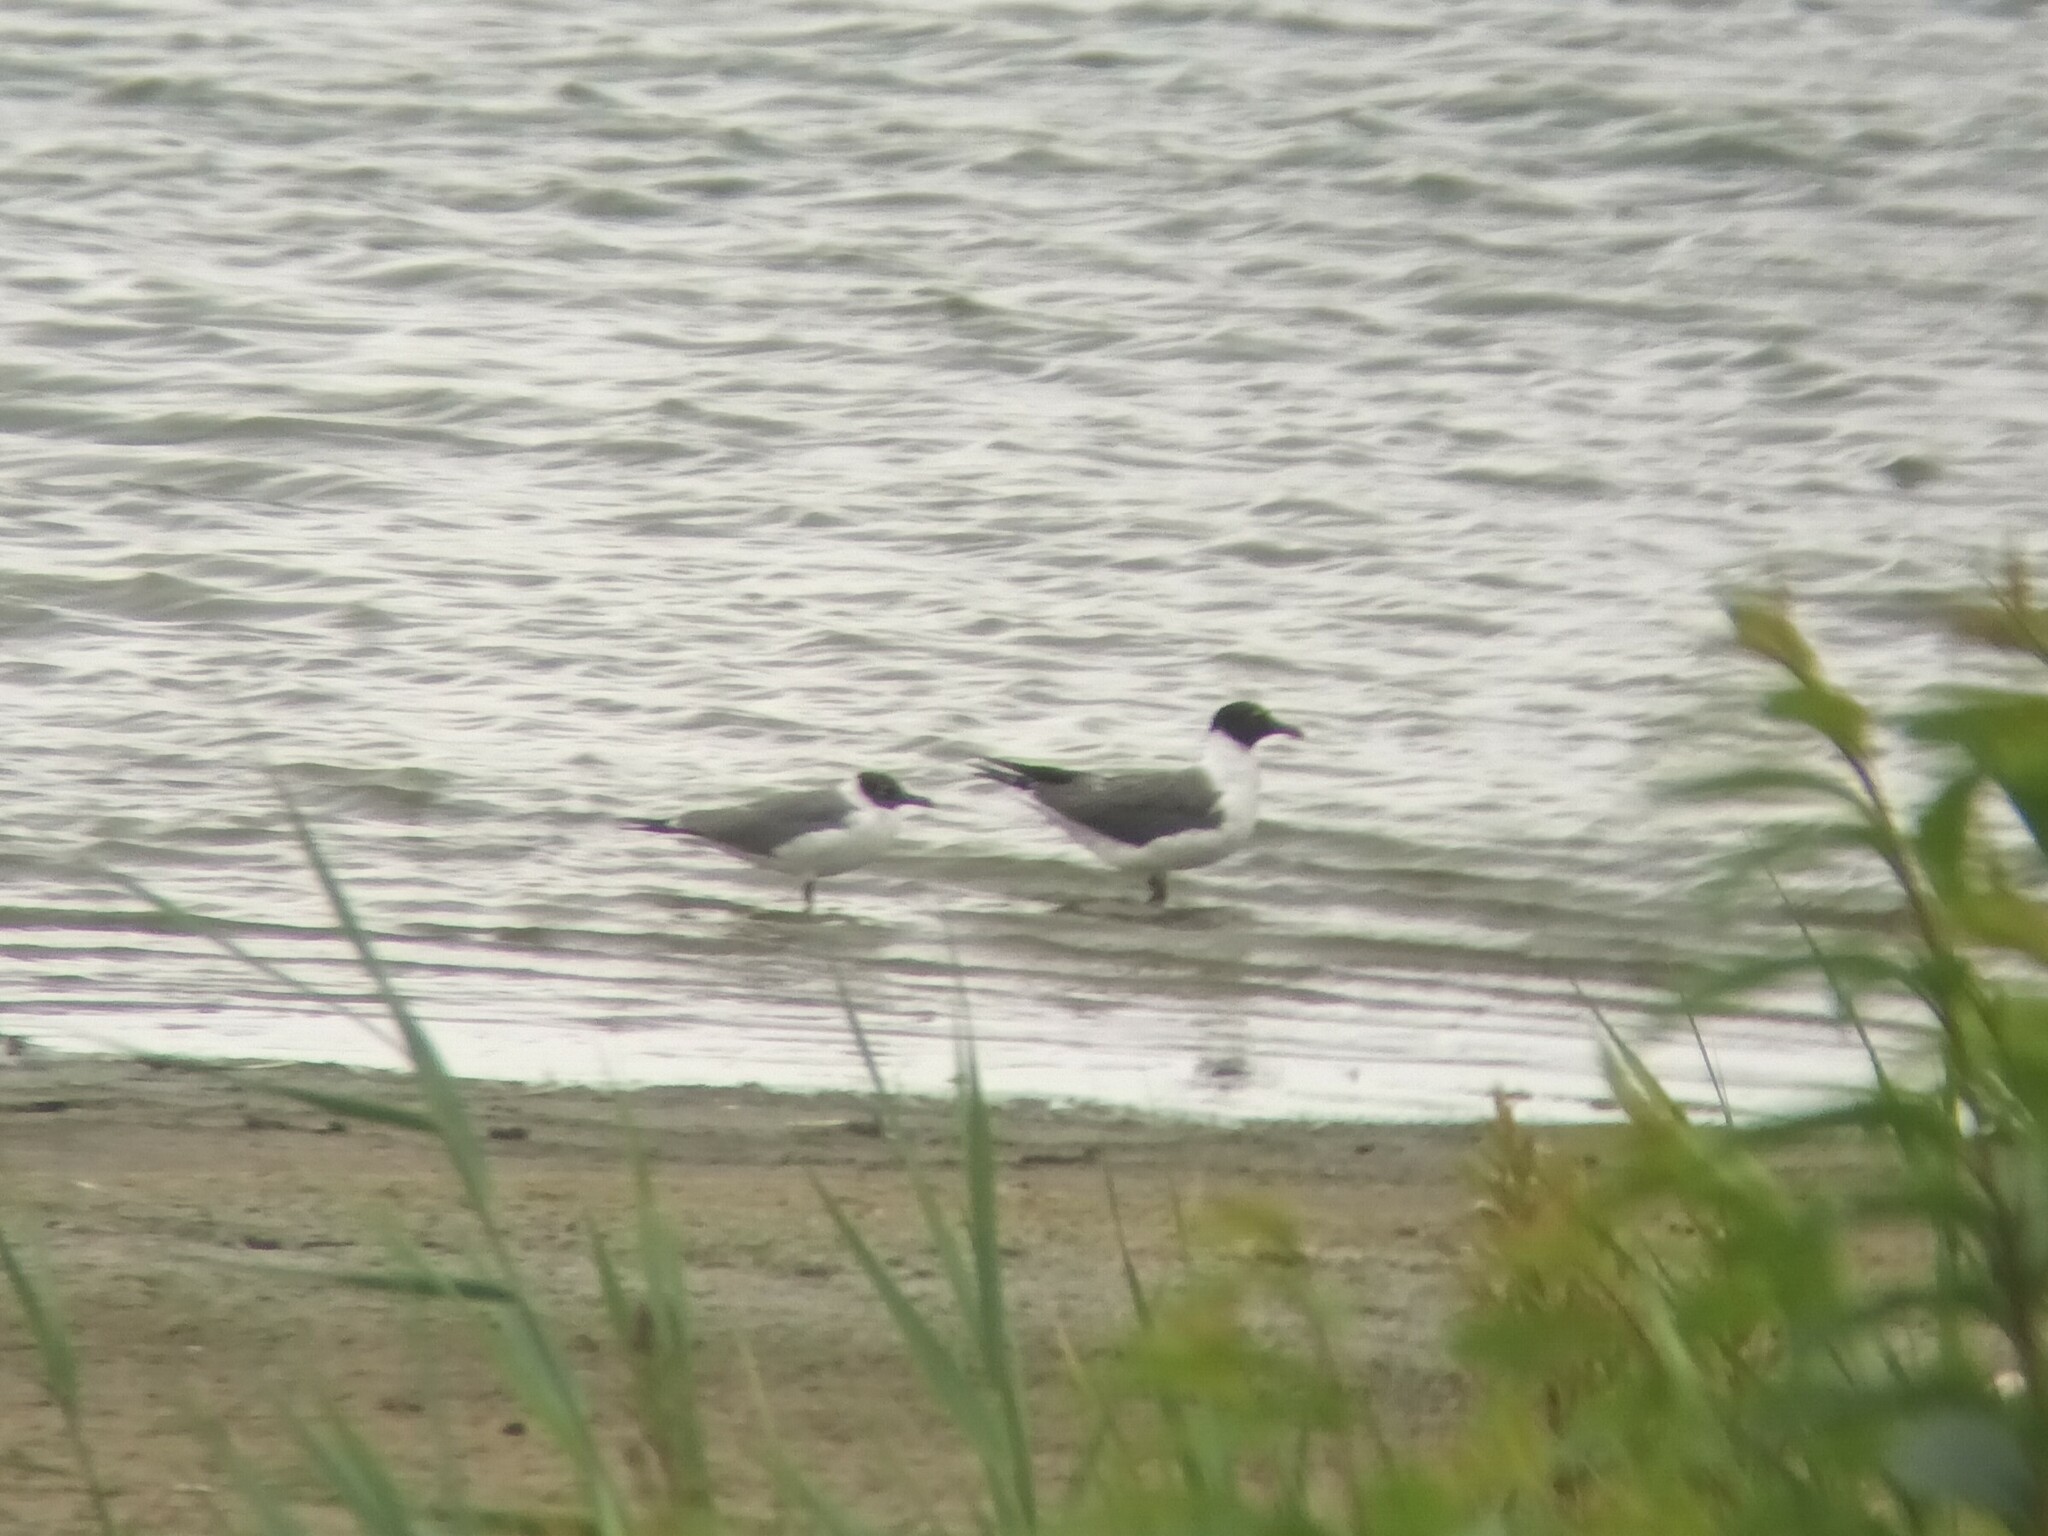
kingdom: Animalia
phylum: Chordata
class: Aves
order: Charadriiformes
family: Laridae
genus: Leucophaeus
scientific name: Leucophaeus atricilla
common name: Laughing gull
